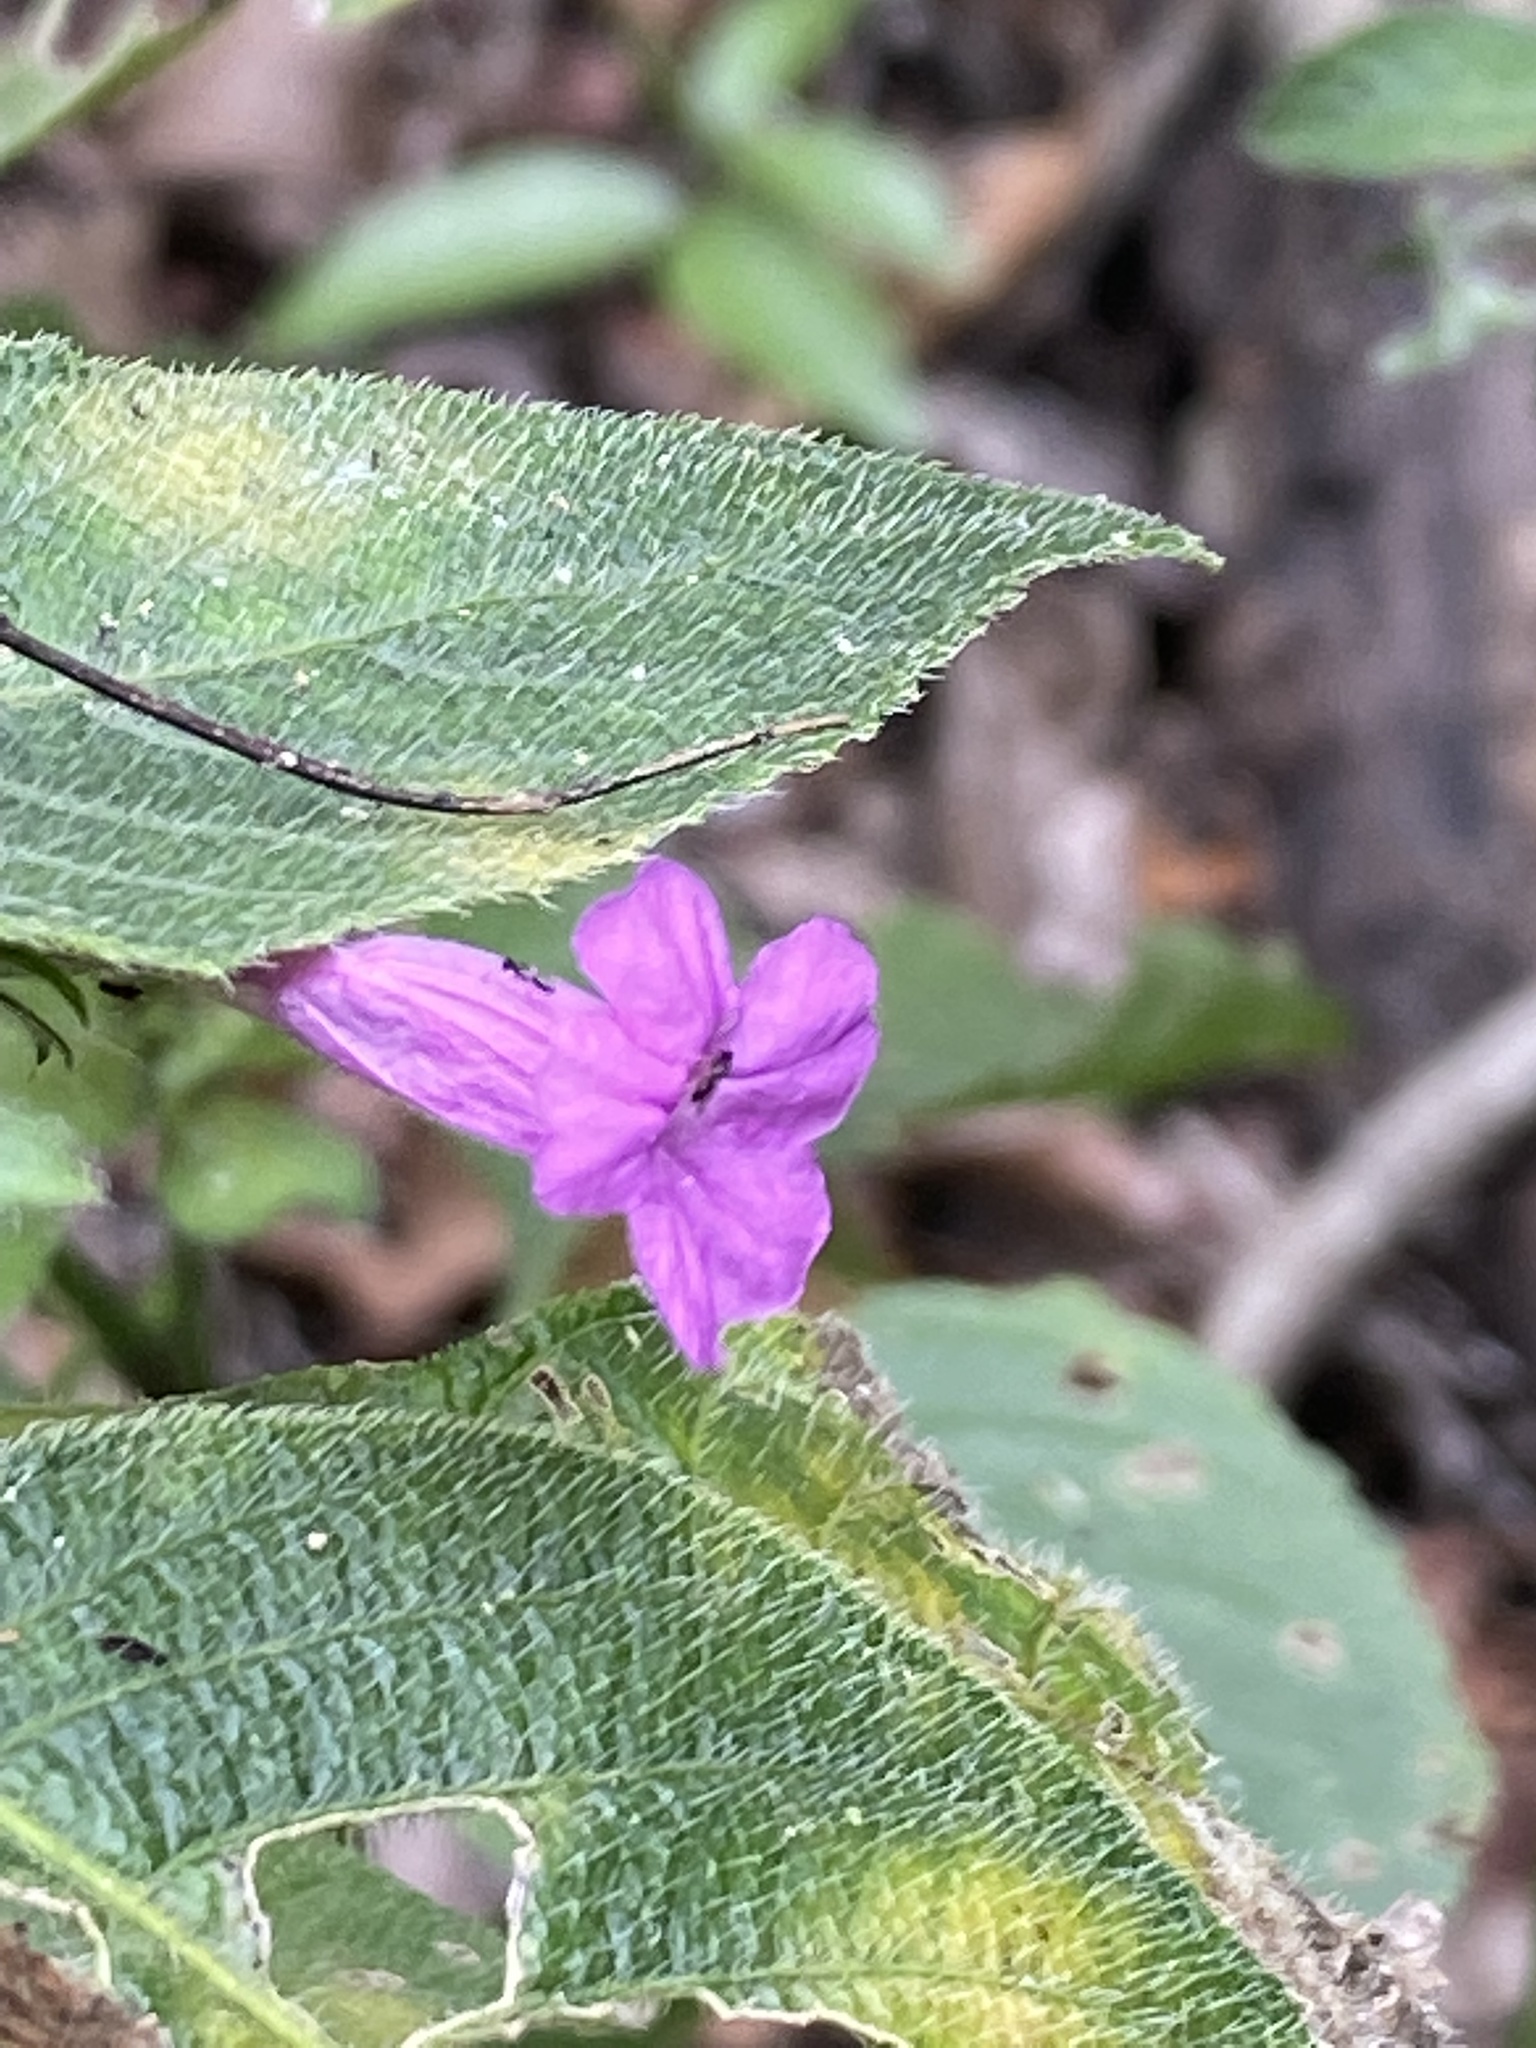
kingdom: Plantae
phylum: Tracheophyta
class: Magnoliopsida
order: Lamiales
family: Acanthaceae
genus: Ruellia
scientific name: Ruellia inundata
